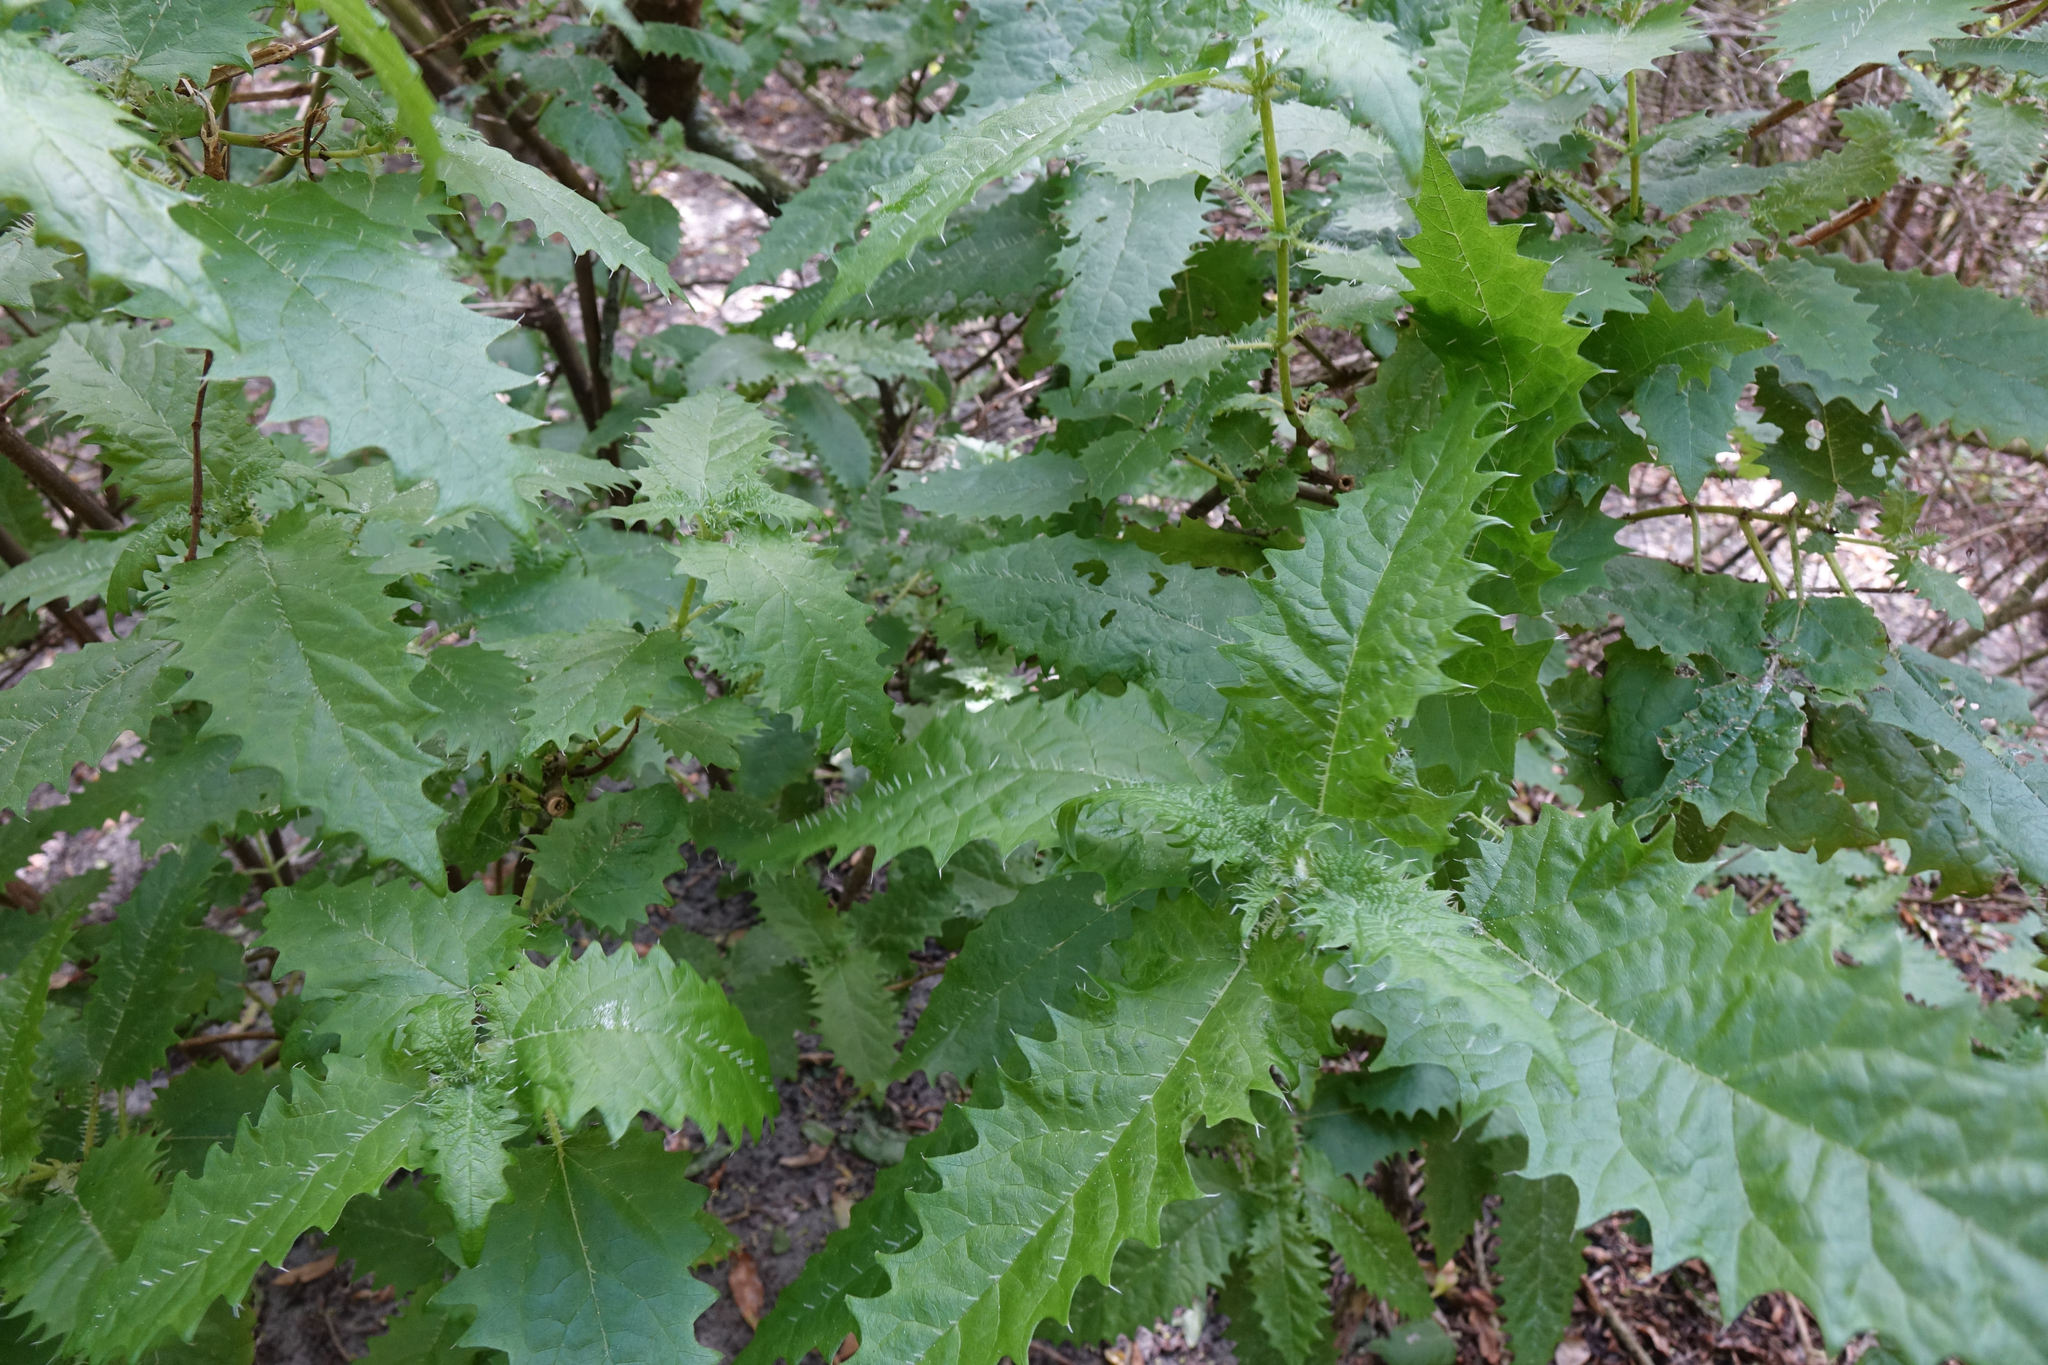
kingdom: Plantae
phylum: Tracheophyta
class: Magnoliopsida
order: Rosales
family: Urticaceae
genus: Urtica
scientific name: Urtica ferox
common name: Tree nettle
